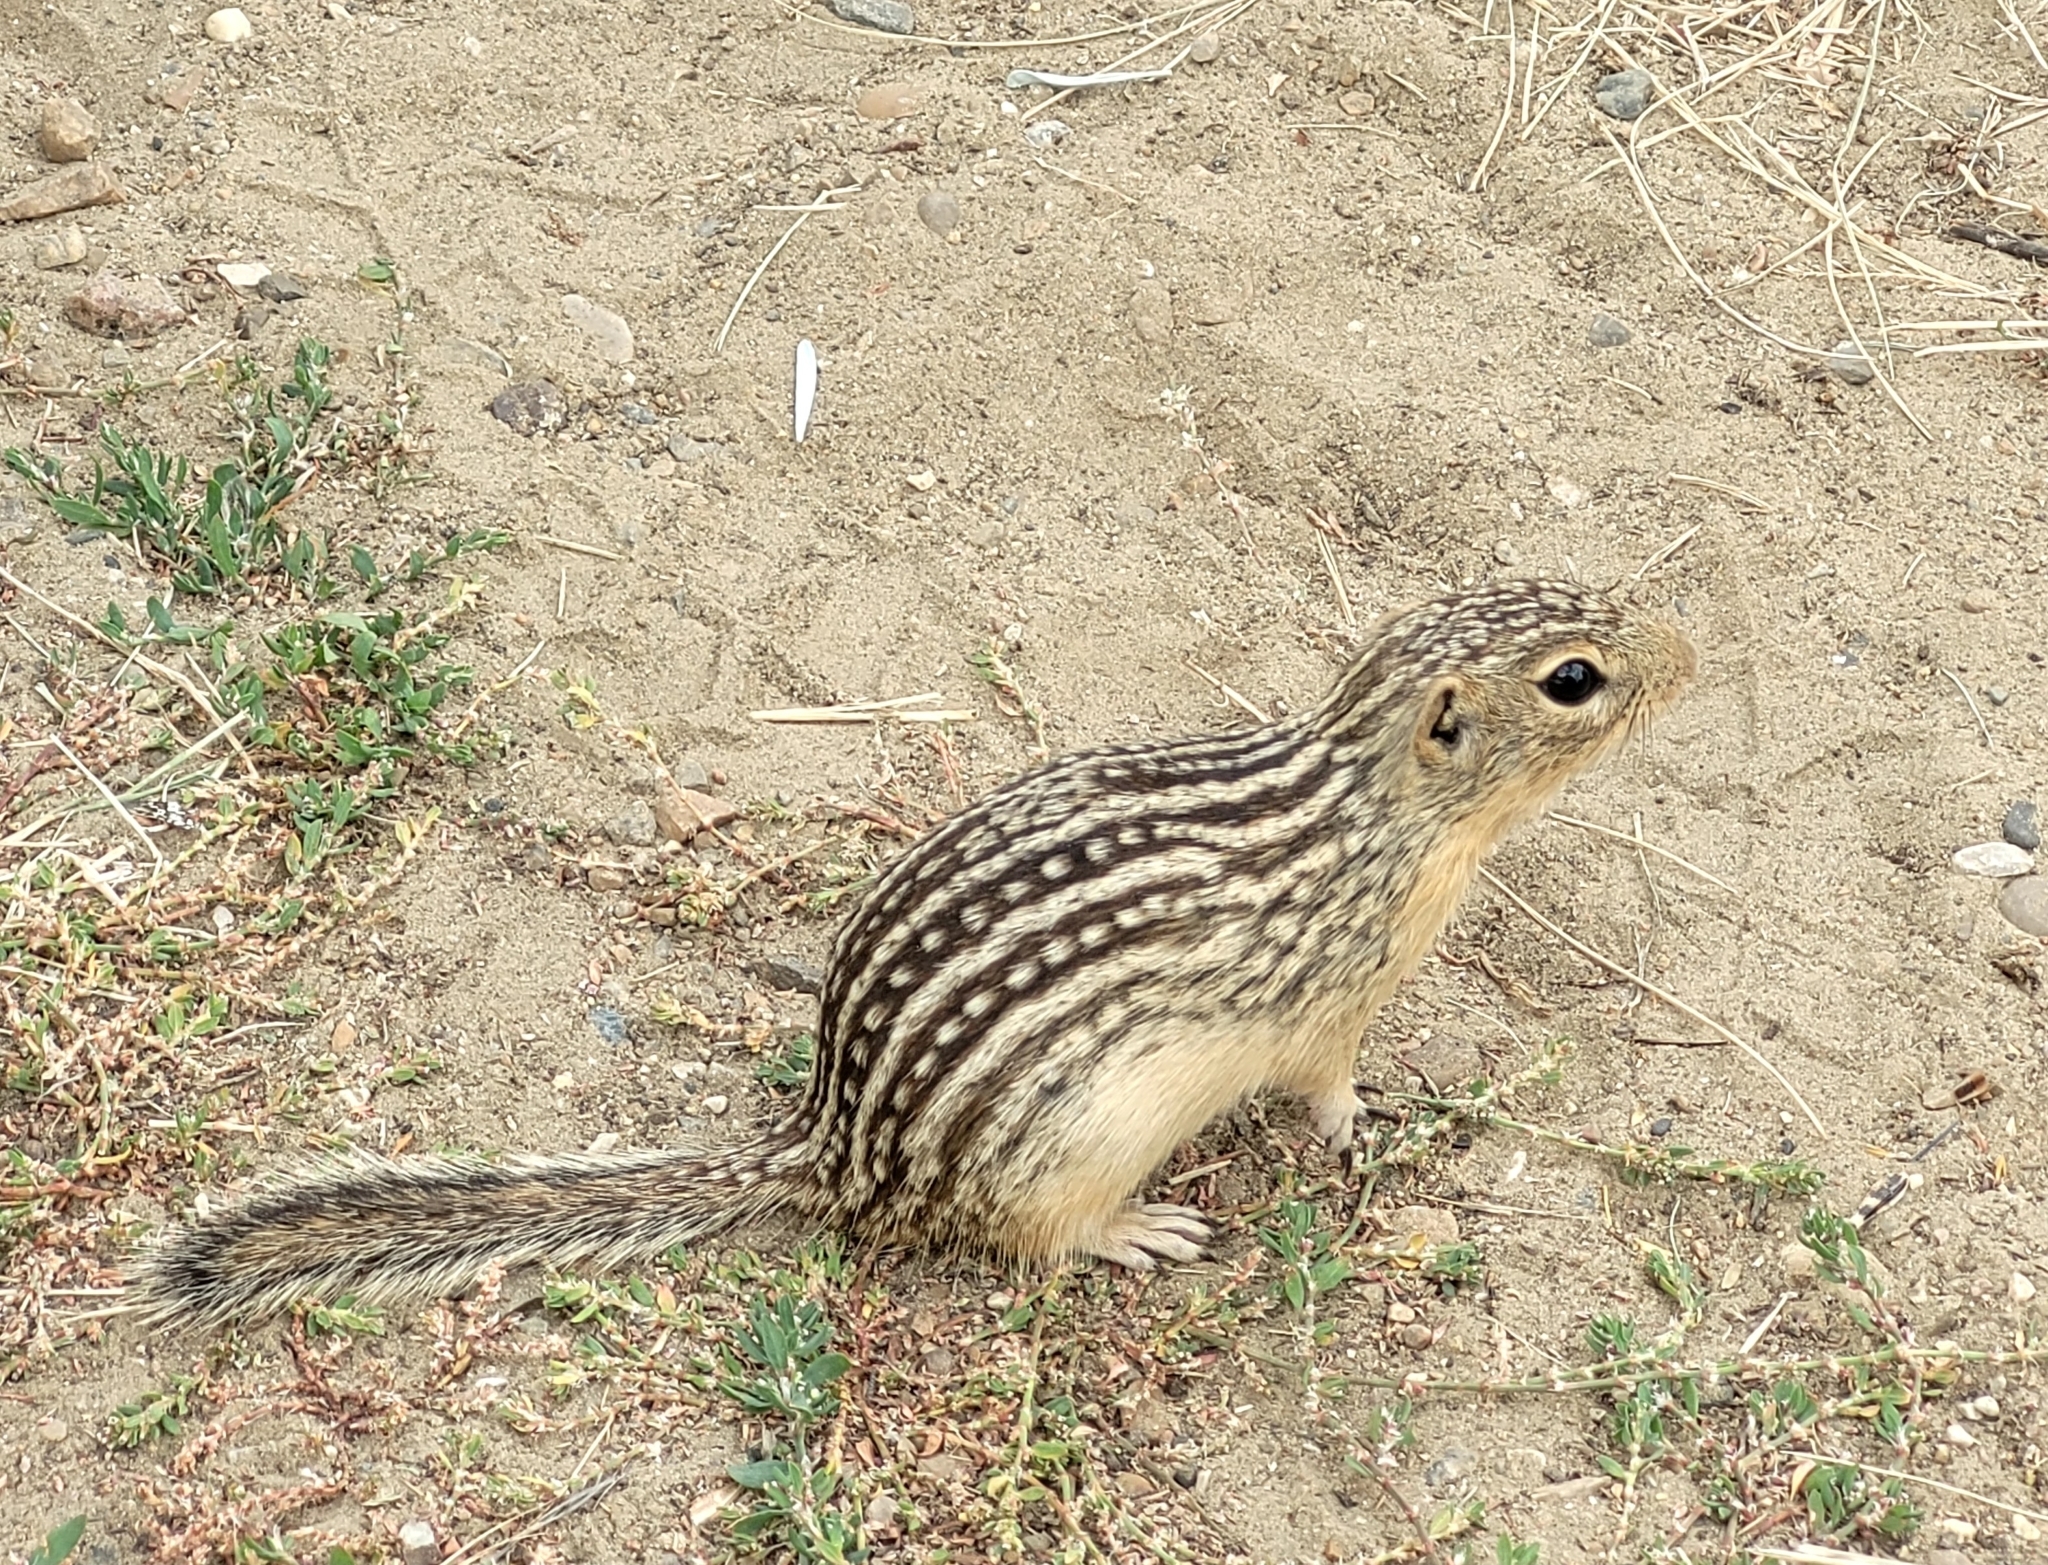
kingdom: Animalia
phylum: Chordata
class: Mammalia
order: Rodentia
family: Sciuridae
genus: Ictidomys
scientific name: Ictidomys tridecemlineatus
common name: Thirteen-lined ground squirrel
